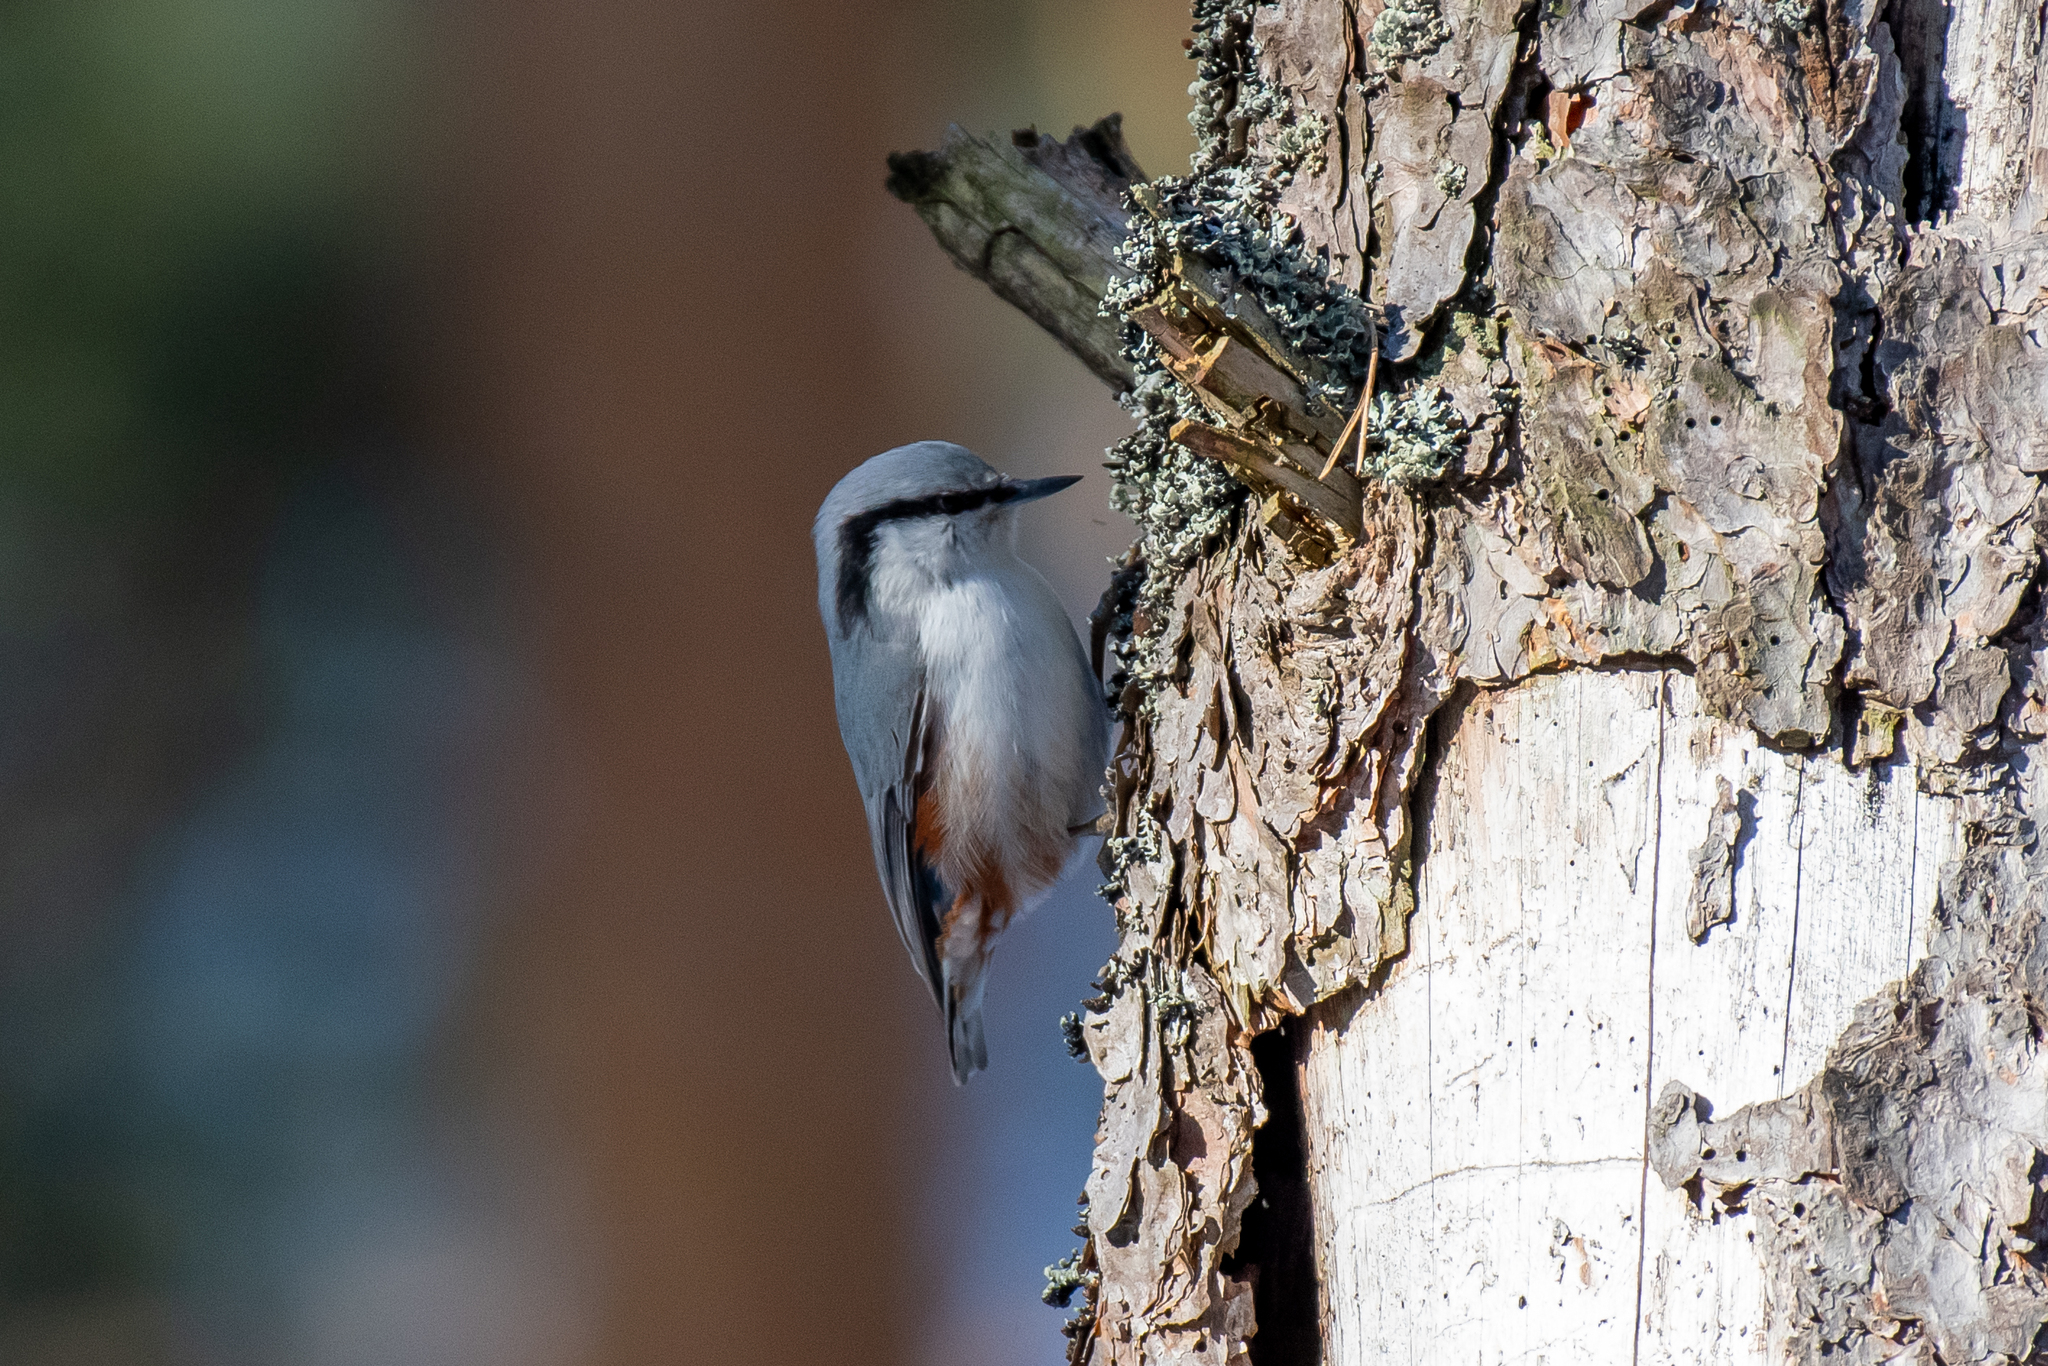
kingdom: Animalia
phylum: Chordata
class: Aves
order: Passeriformes
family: Sittidae
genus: Sitta
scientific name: Sitta europaea
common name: Eurasian nuthatch
